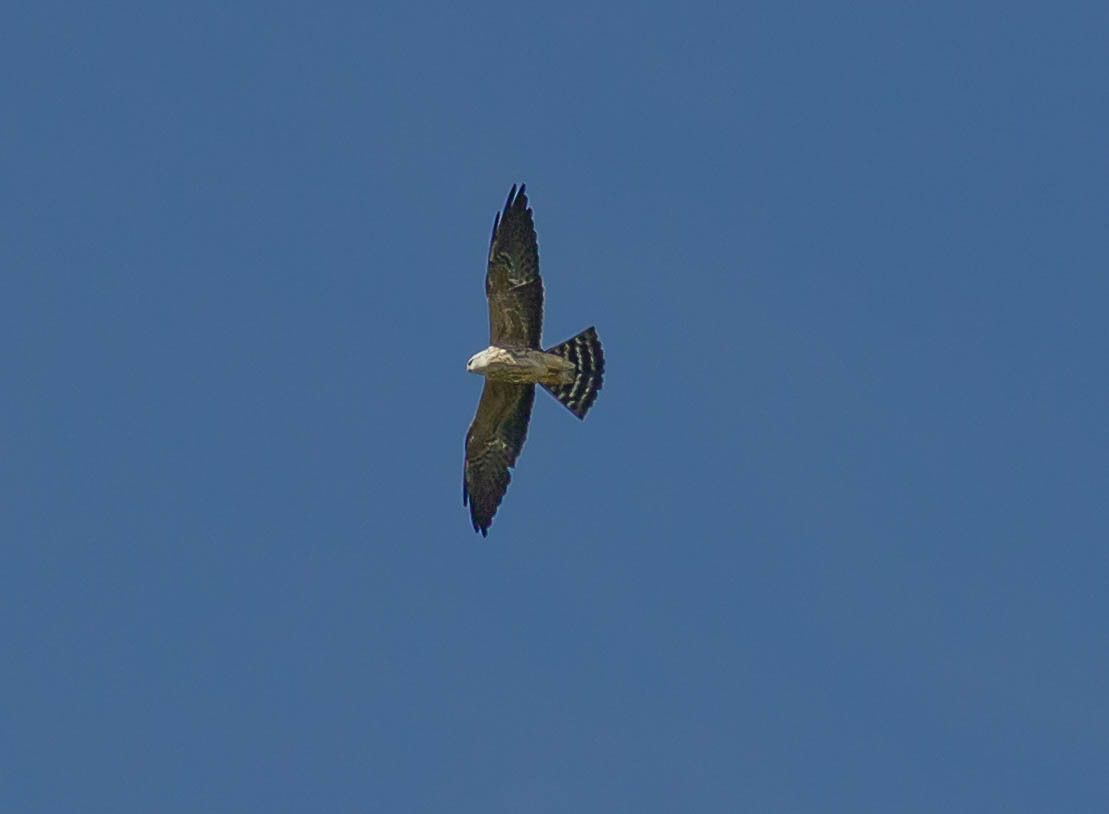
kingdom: Animalia
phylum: Chordata
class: Aves
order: Accipitriformes
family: Accipitridae
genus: Ictinia
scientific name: Ictinia mississippiensis
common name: Mississippi kite
